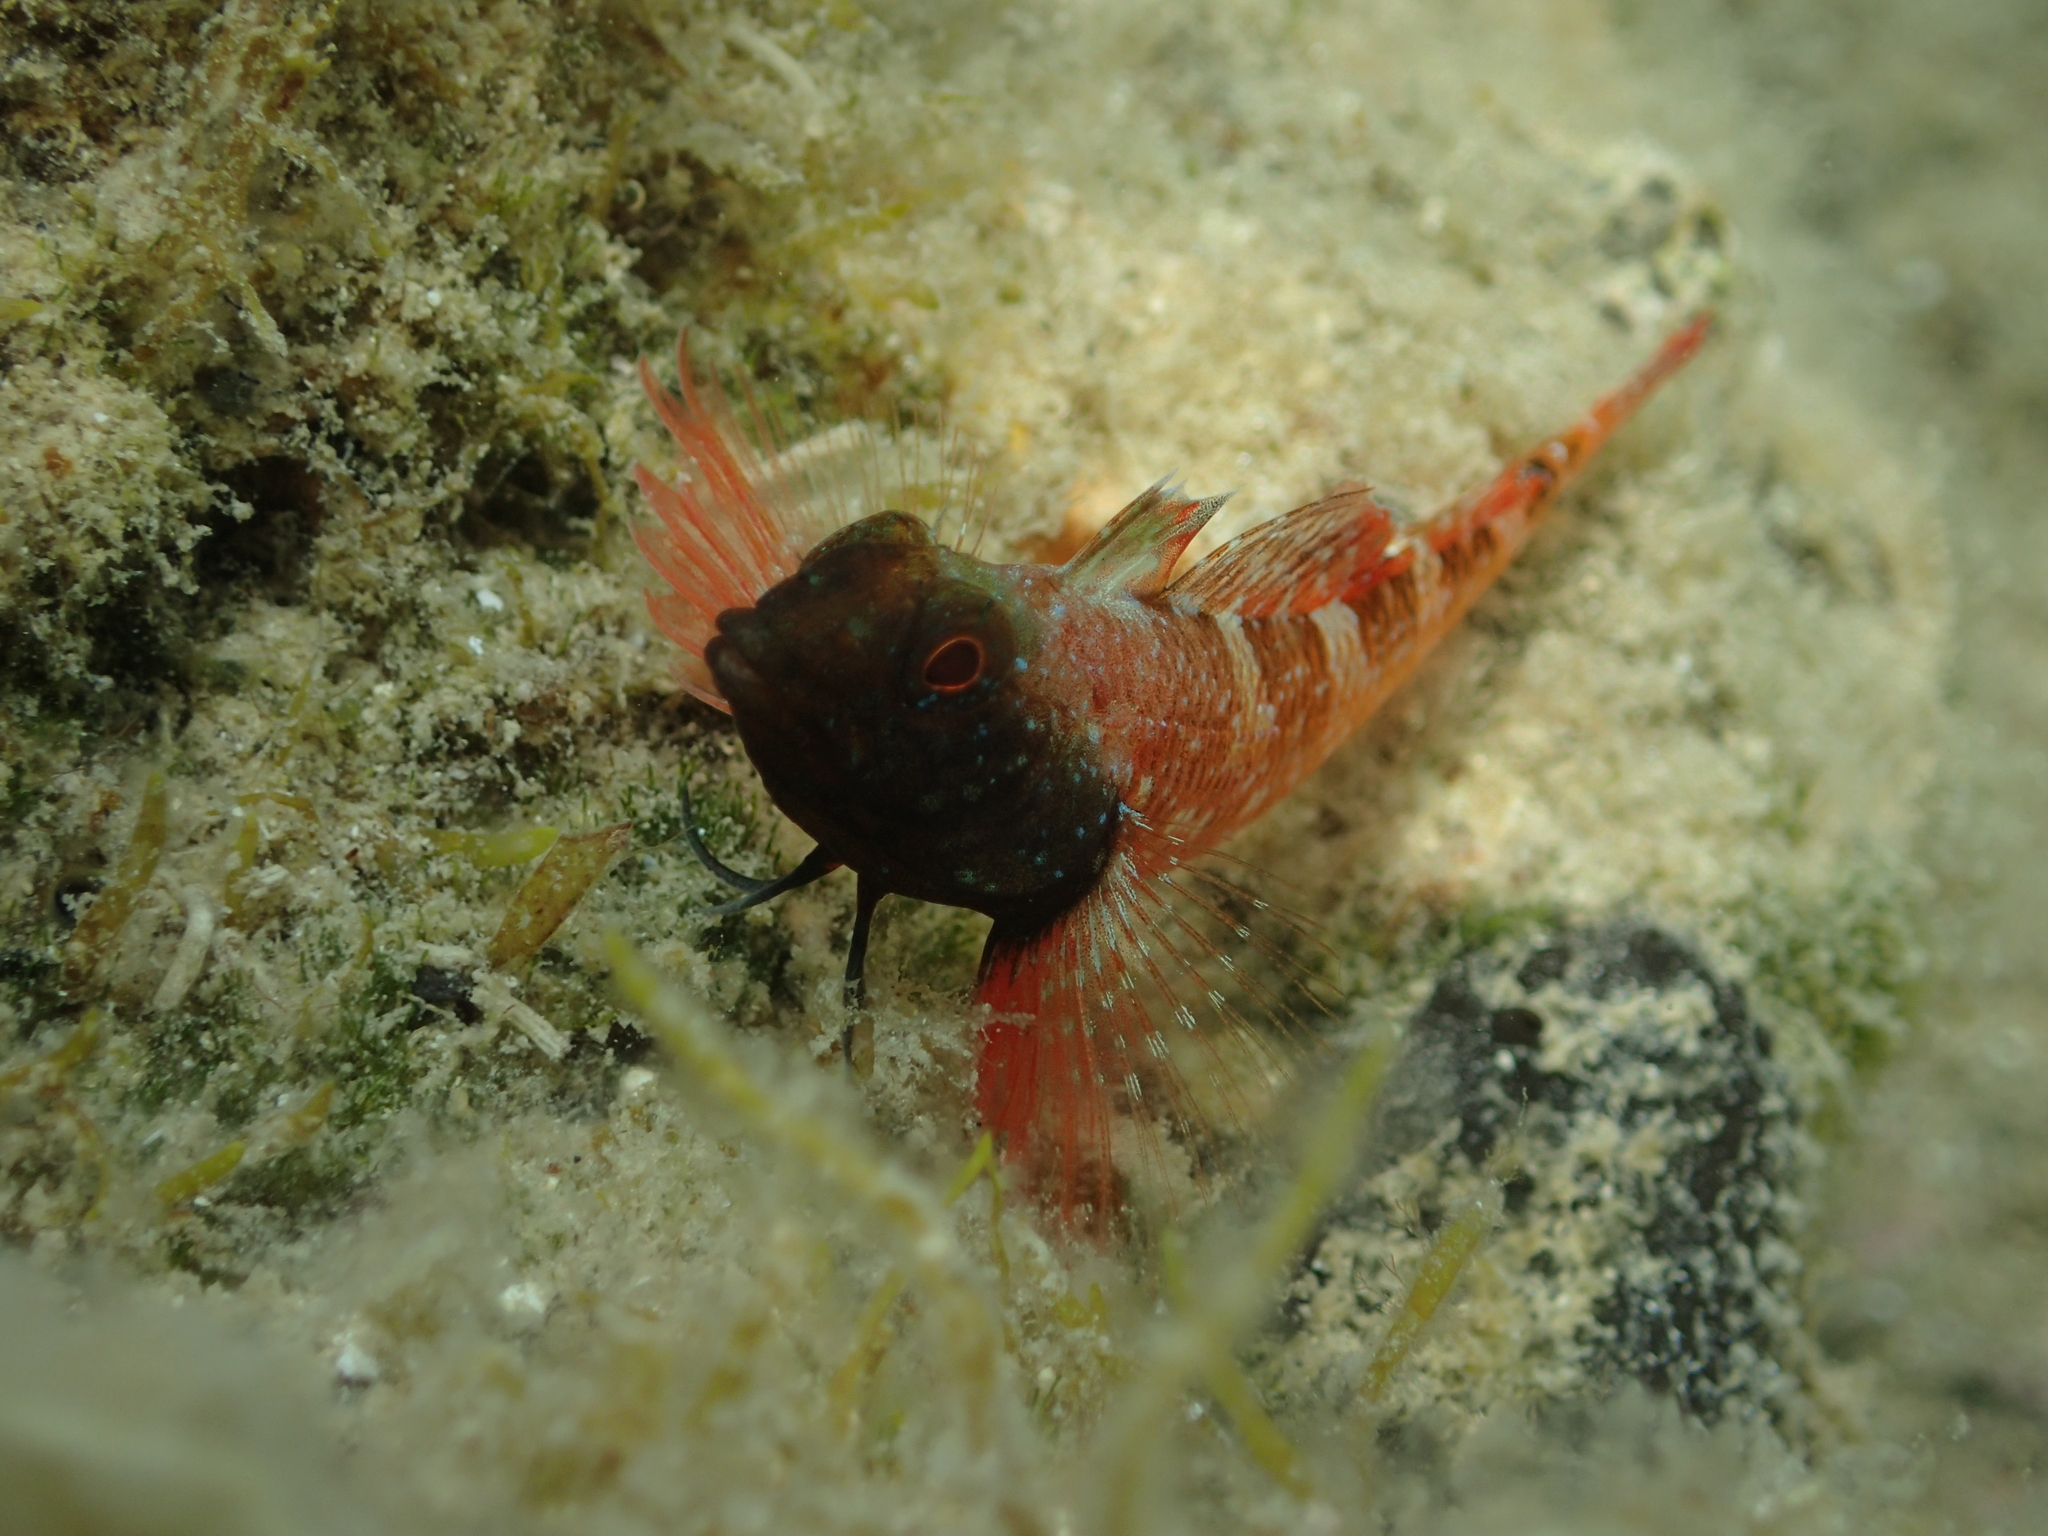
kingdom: Animalia
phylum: Chordata
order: Perciformes
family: Tripterygiidae
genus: Tripterygion
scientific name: Tripterygion tripteronotum
